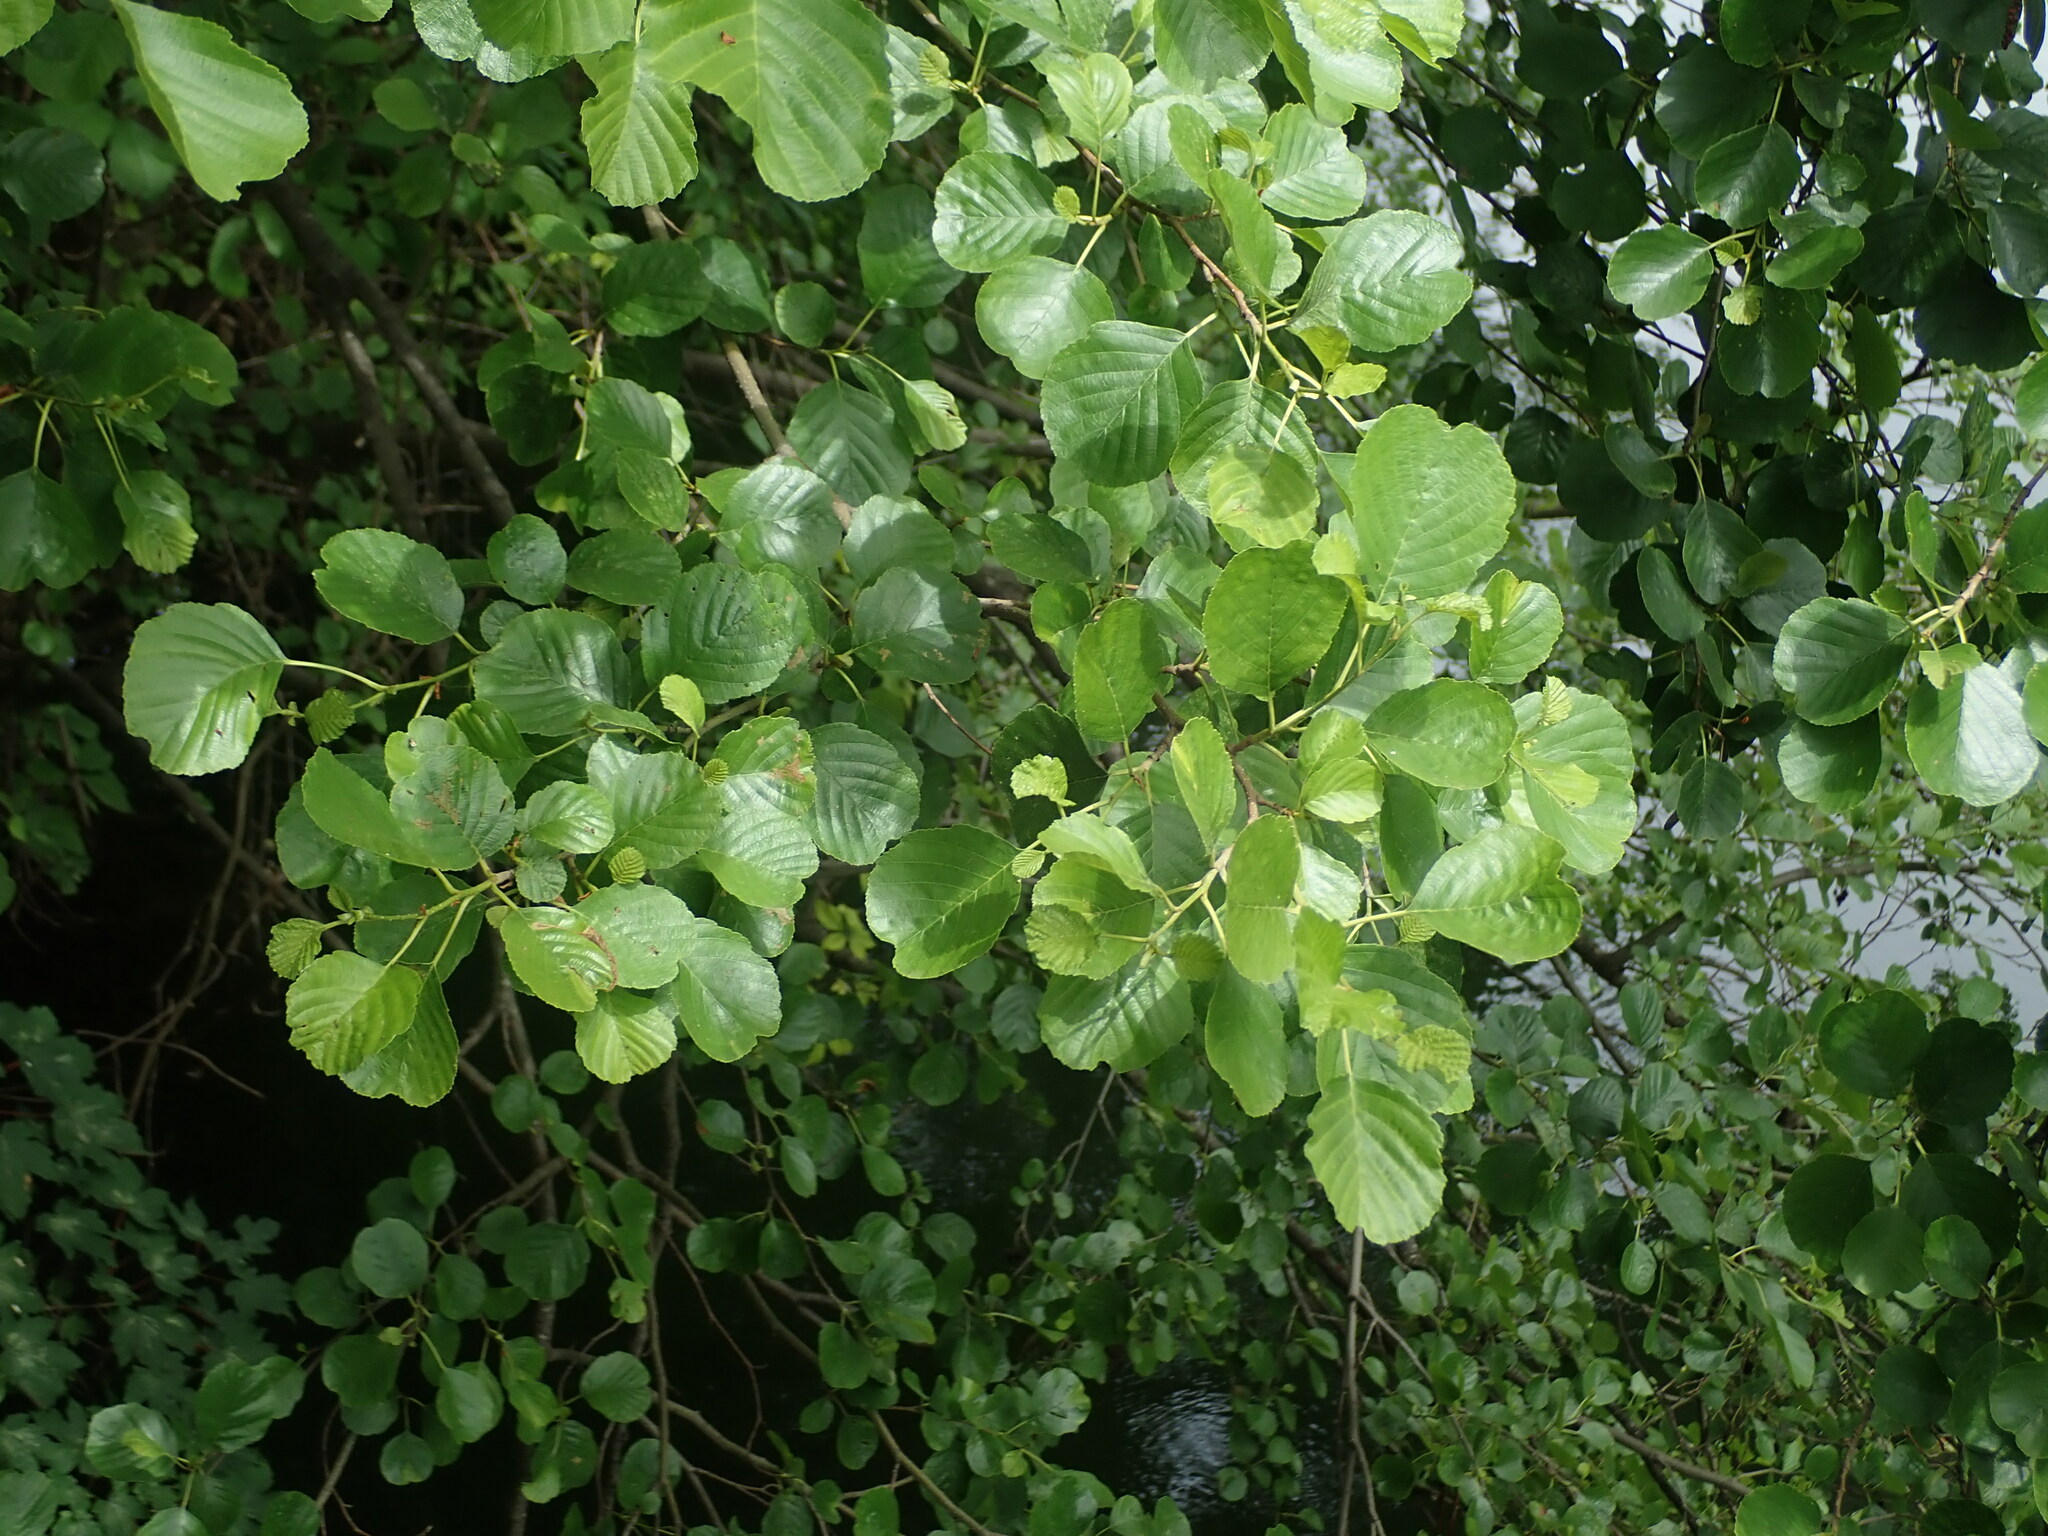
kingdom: Plantae
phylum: Tracheophyta
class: Magnoliopsida
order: Fagales
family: Betulaceae
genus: Alnus
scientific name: Alnus glutinosa
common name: Black alder
